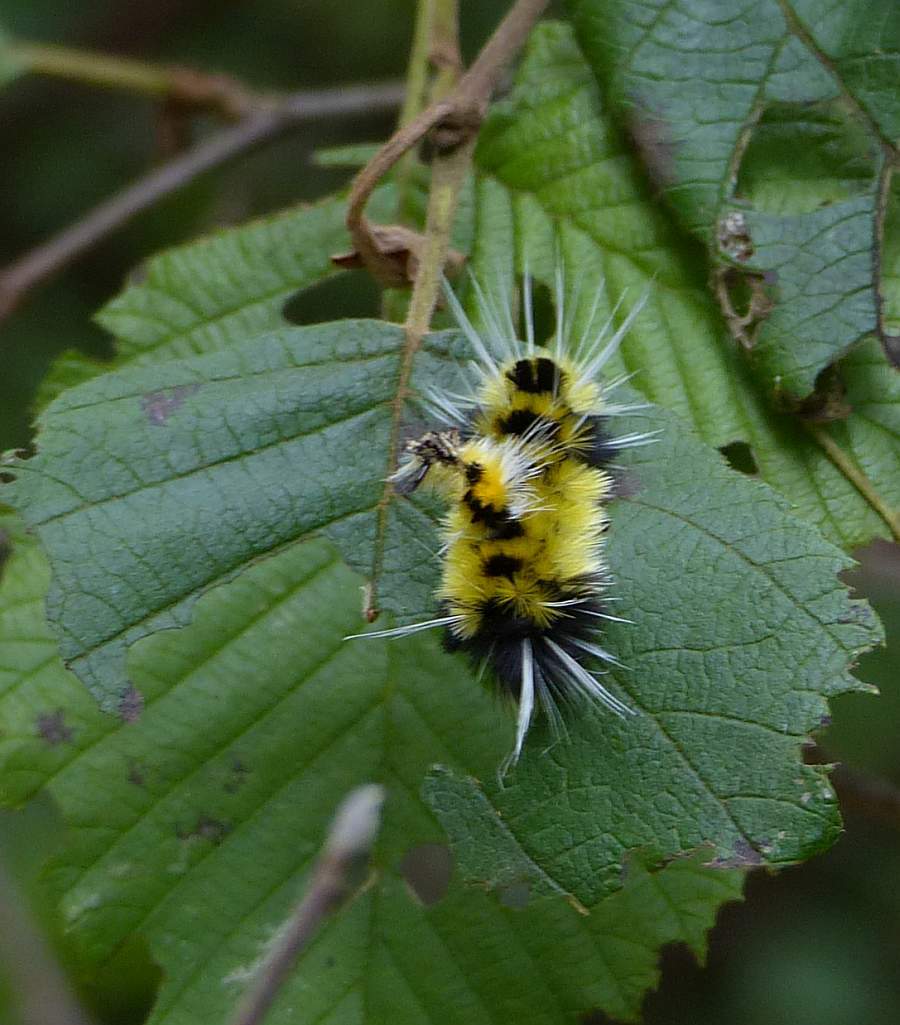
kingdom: Animalia
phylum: Arthropoda
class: Insecta
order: Lepidoptera
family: Erebidae
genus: Lophocampa
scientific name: Lophocampa maculata
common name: Spotted tussock moth
